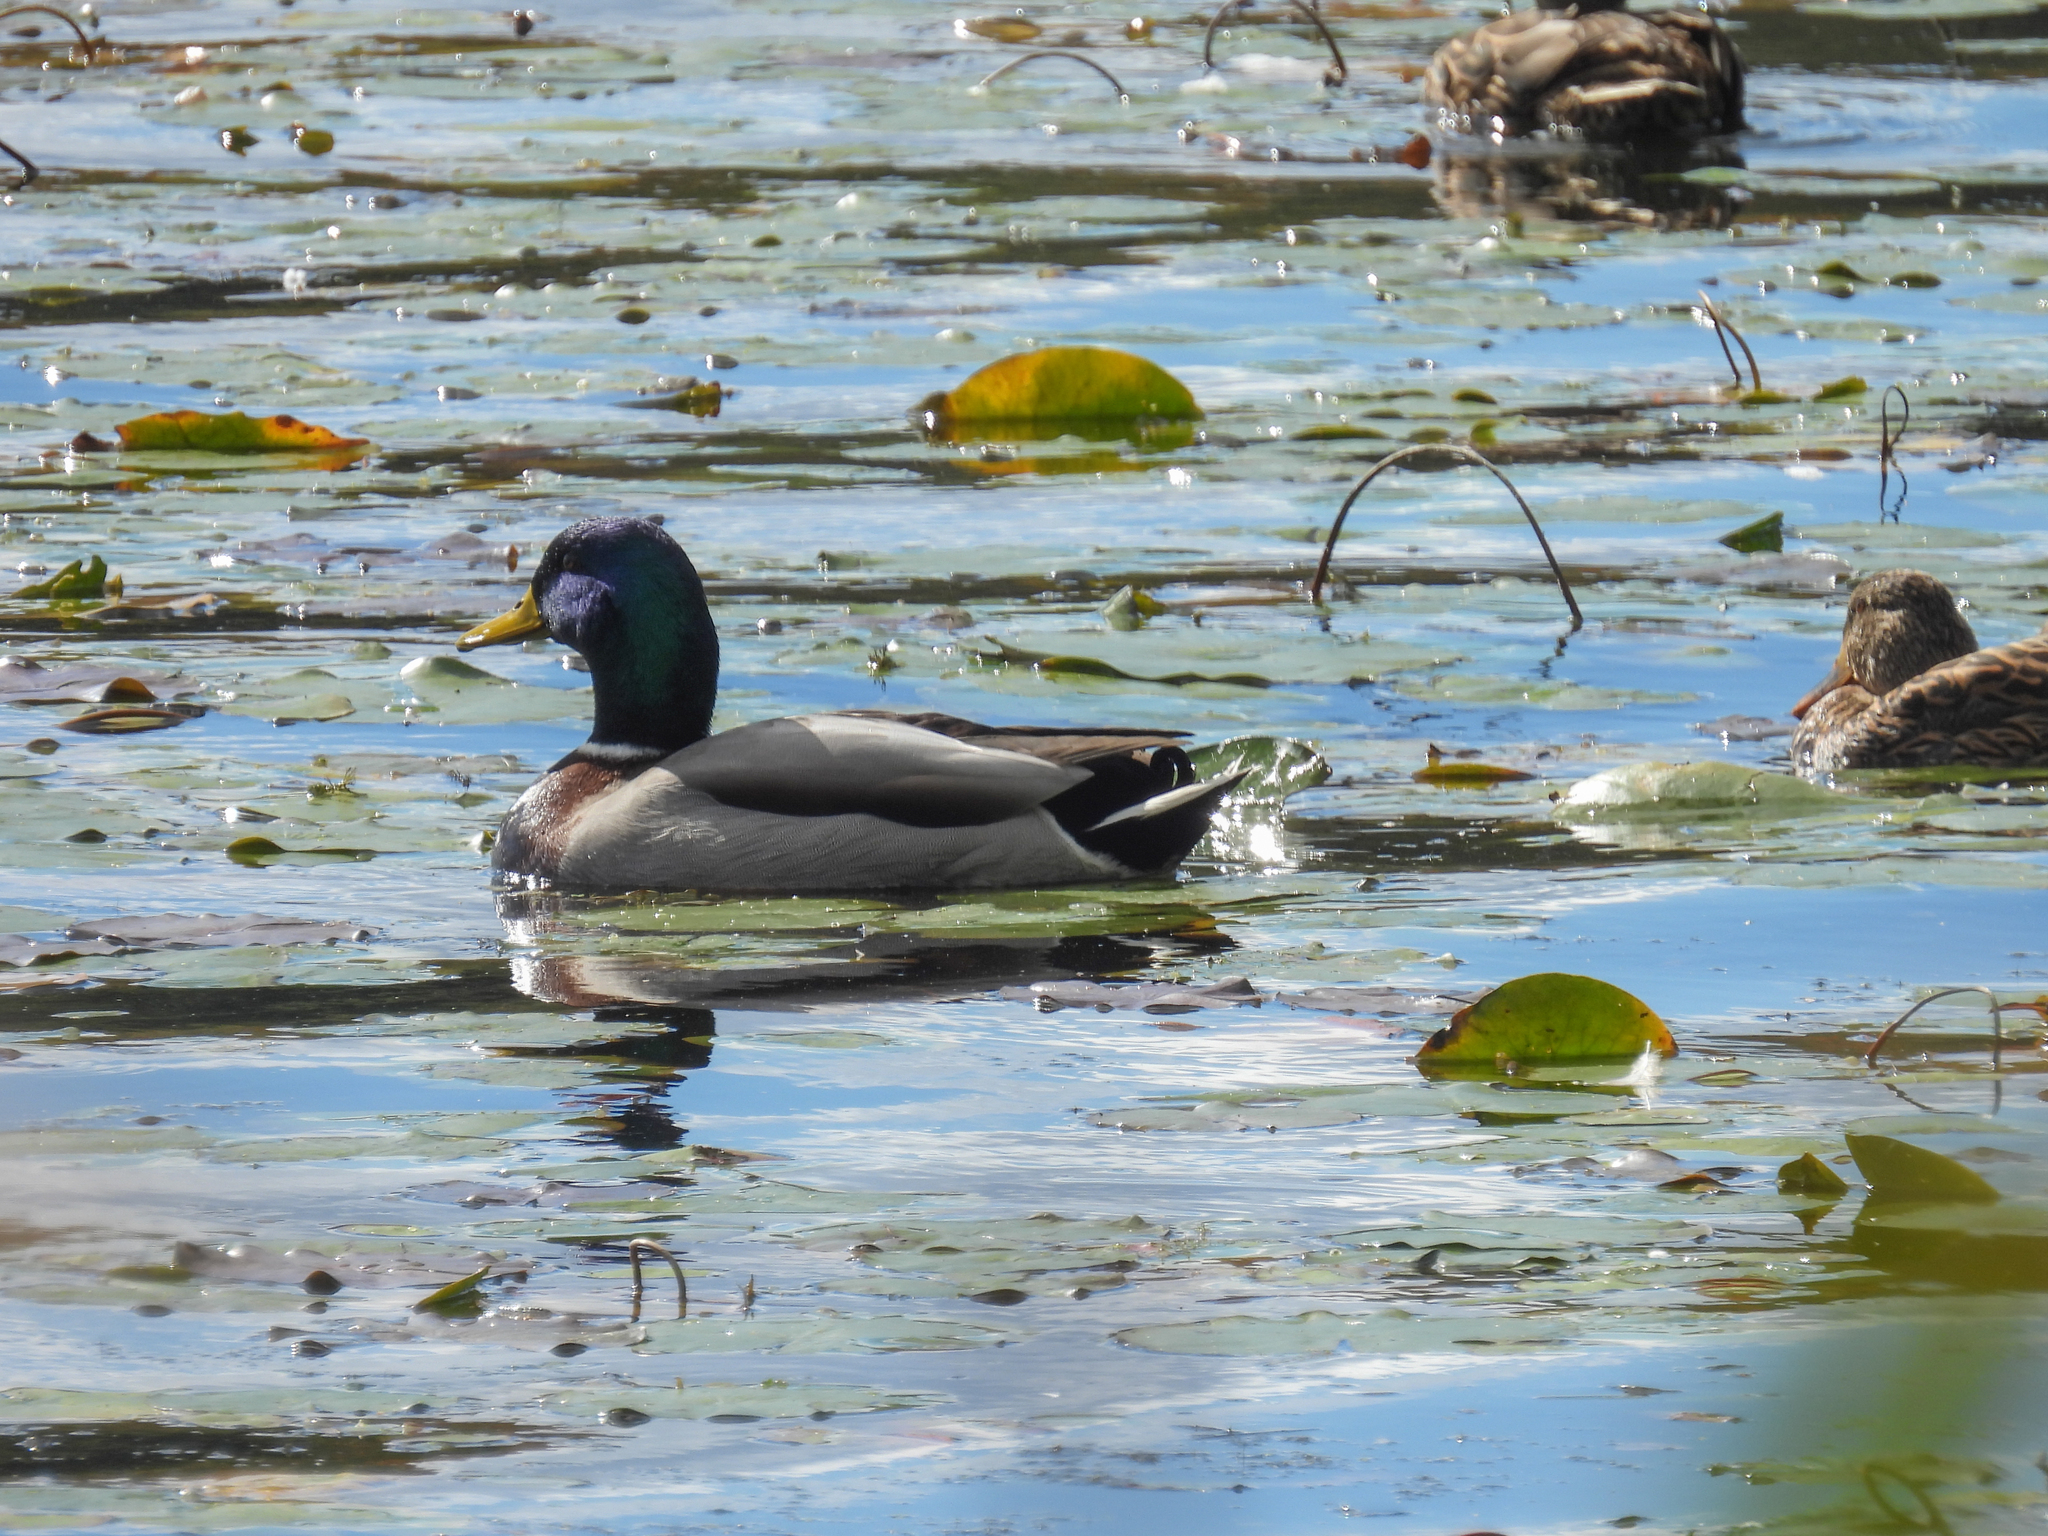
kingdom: Animalia
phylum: Chordata
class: Aves
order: Anseriformes
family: Anatidae
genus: Anas
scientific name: Anas platyrhynchos
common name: Mallard
